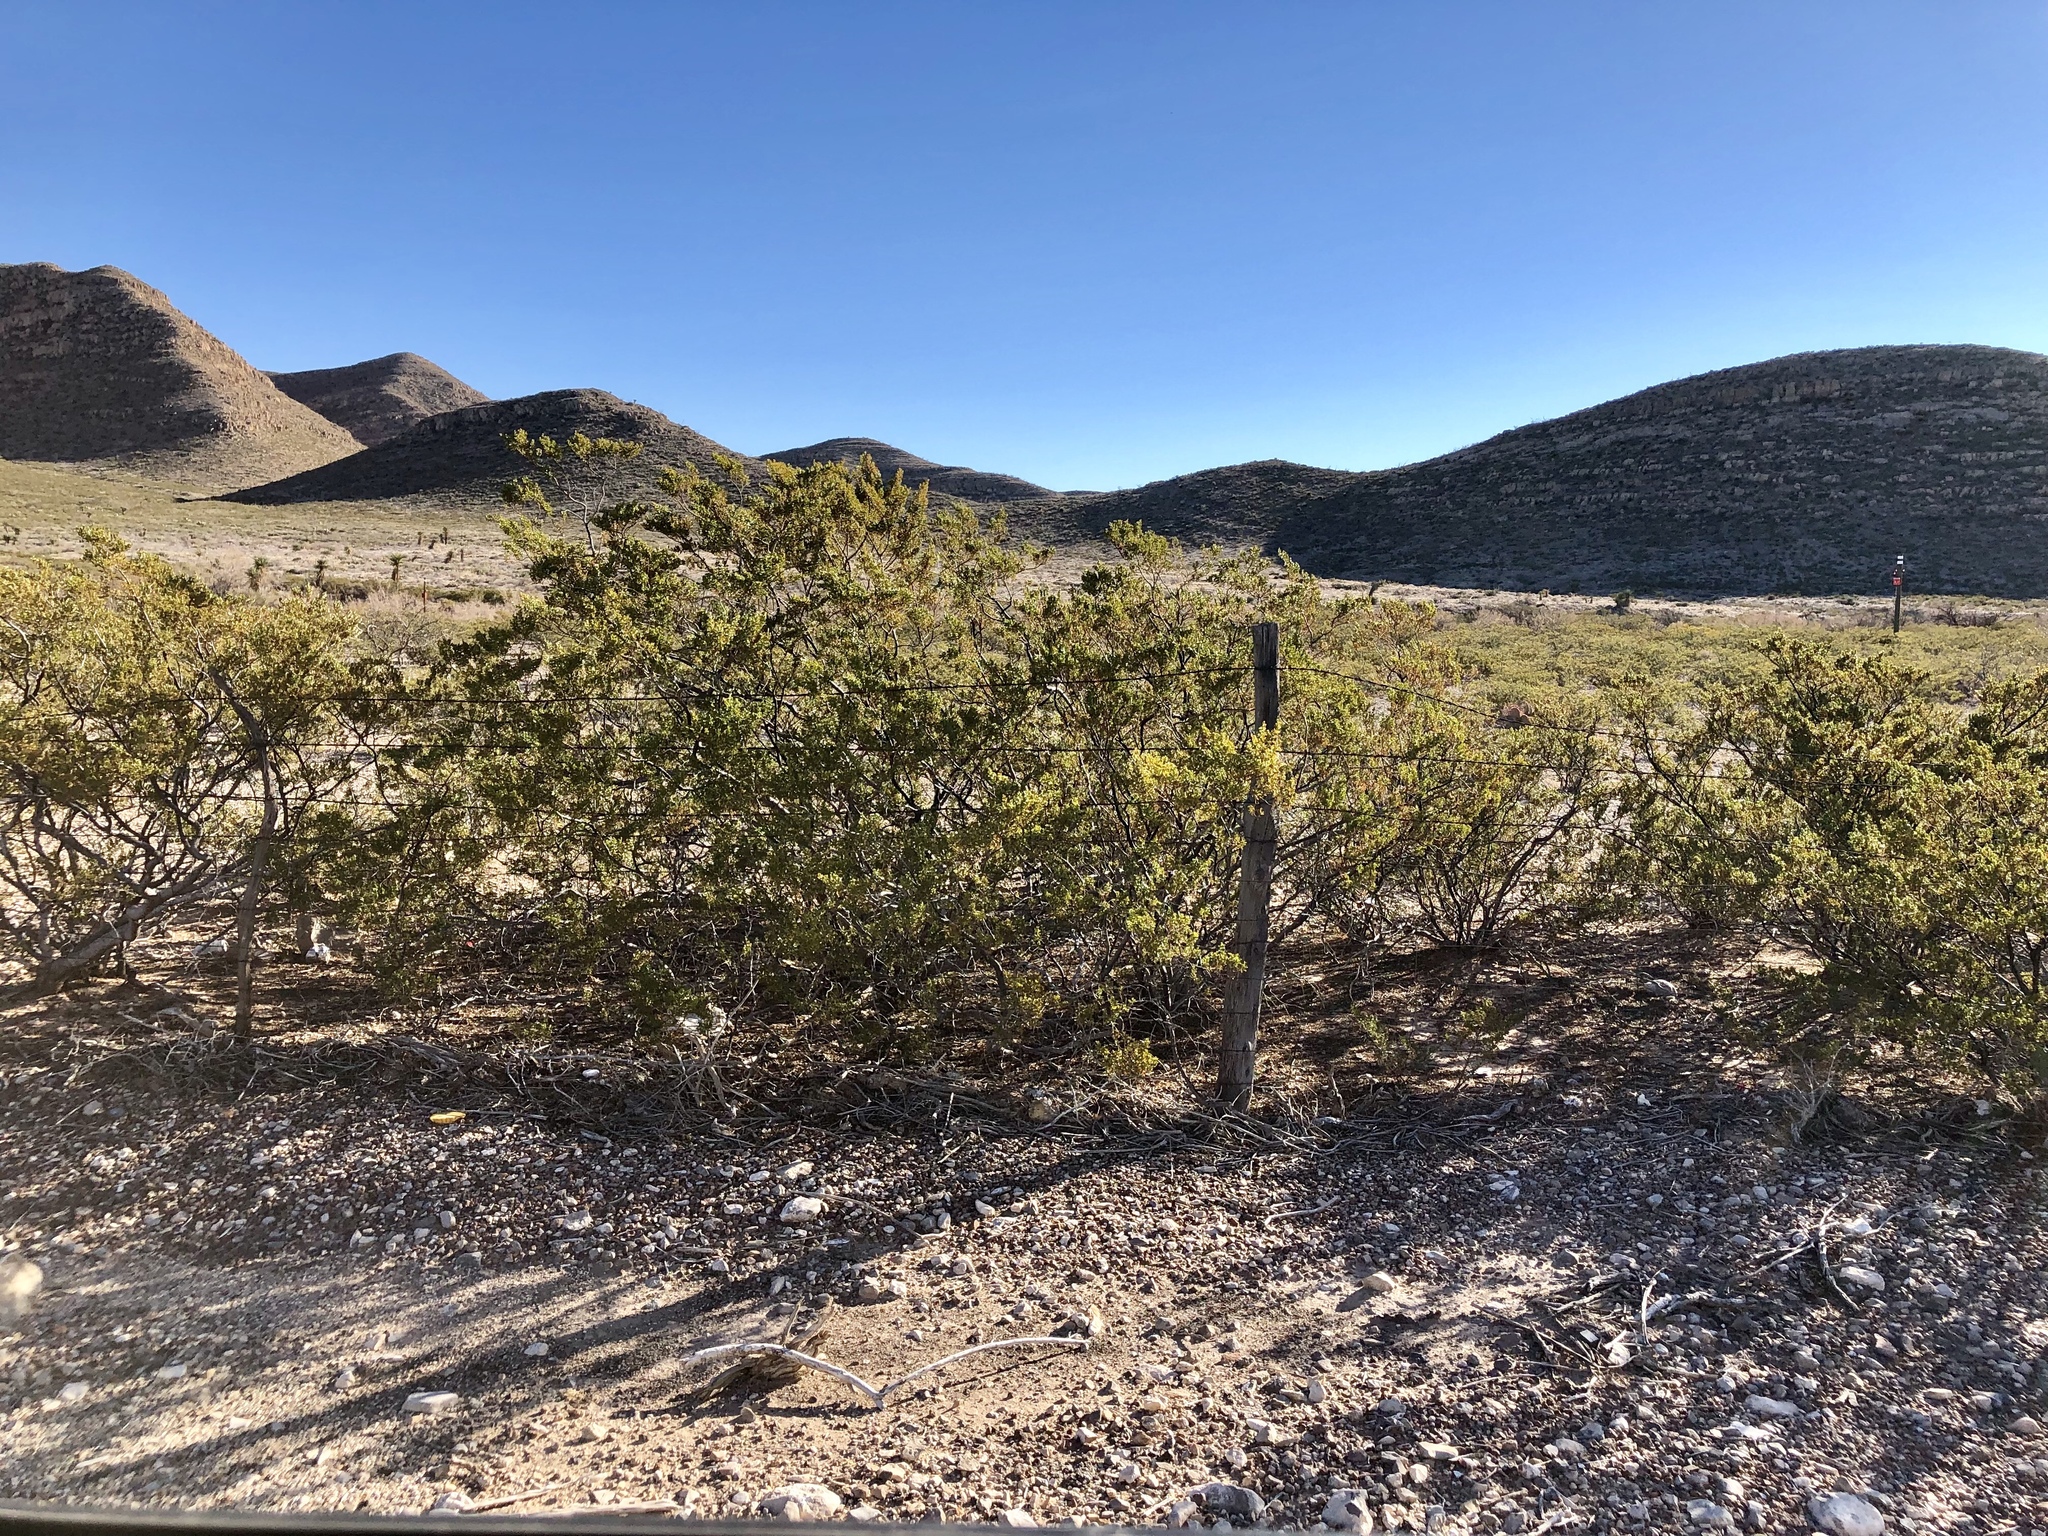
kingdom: Plantae
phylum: Tracheophyta
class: Magnoliopsida
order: Zygophyllales
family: Zygophyllaceae
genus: Larrea
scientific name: Larrea tridentata
